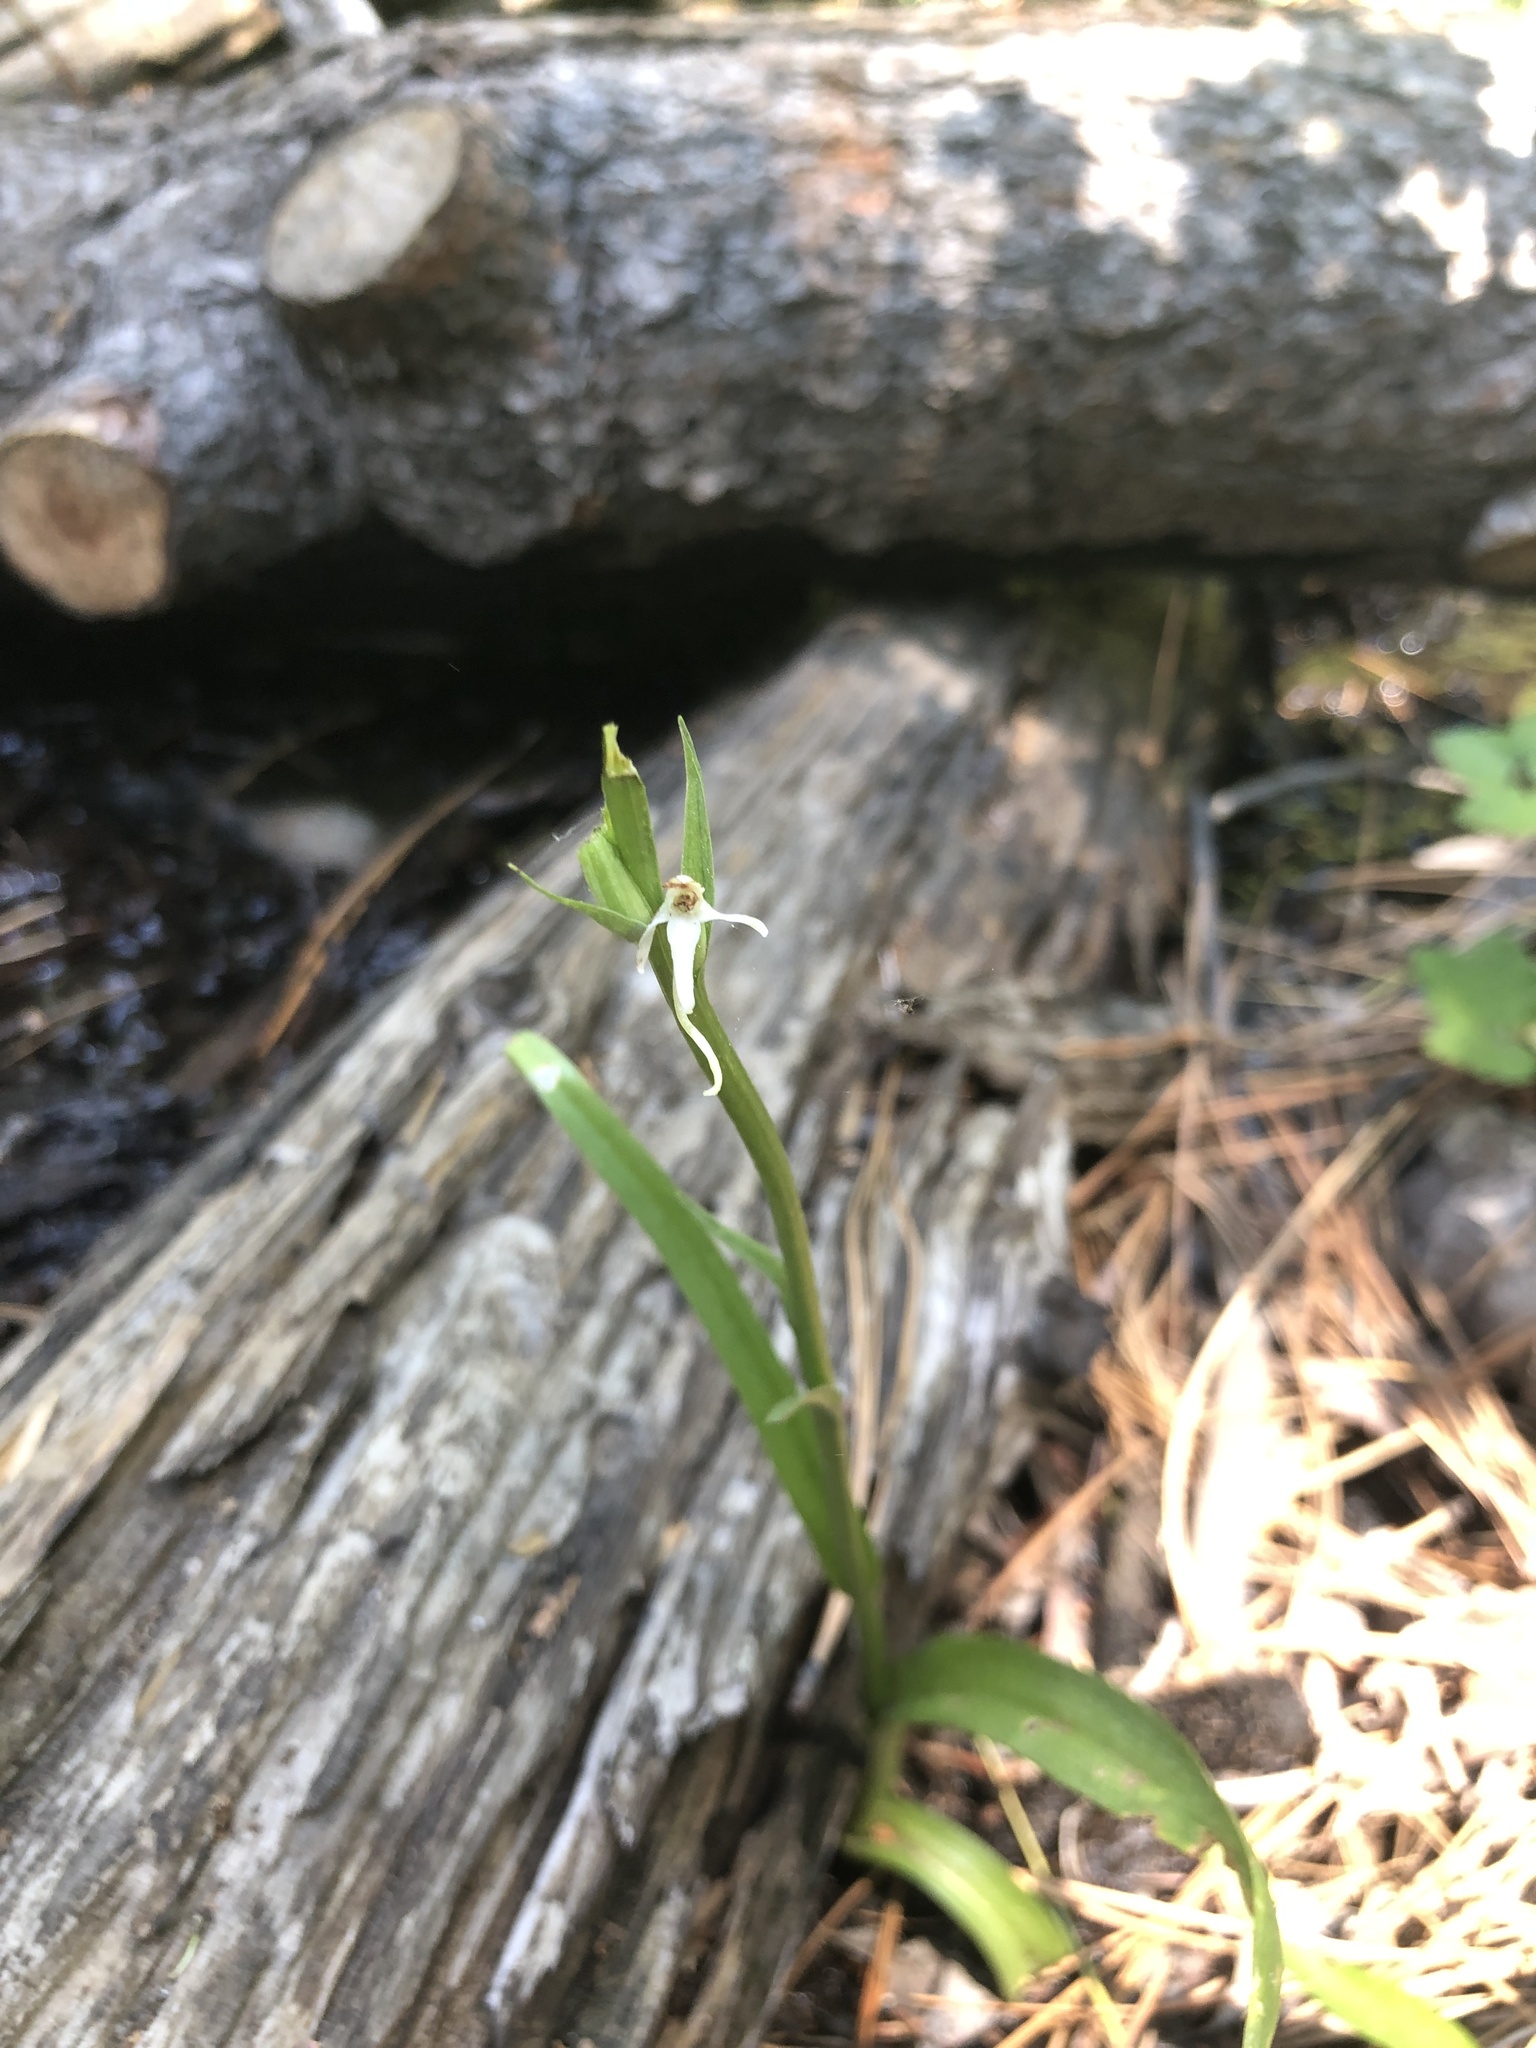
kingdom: Plantae
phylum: Tracheophyta
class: Liliopsida
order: Asparagales
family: Orchidaceae
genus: Platanthera
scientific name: Platanthera dilatata
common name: Bog candles
